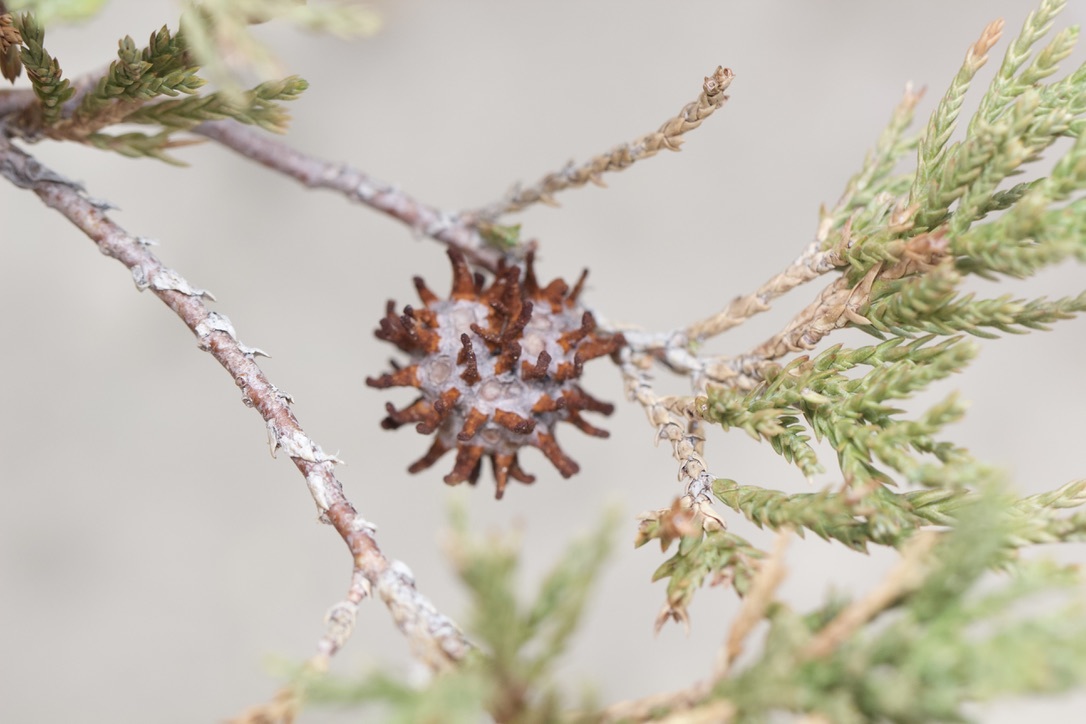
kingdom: Fungi
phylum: Basidiomycota
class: Pucciniomycetes
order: Pucciniales
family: Gymnosporangiaceae
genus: Gymnosporangium
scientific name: Gymnosporangium juniperi-virginianae
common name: Juniper-apple rust
